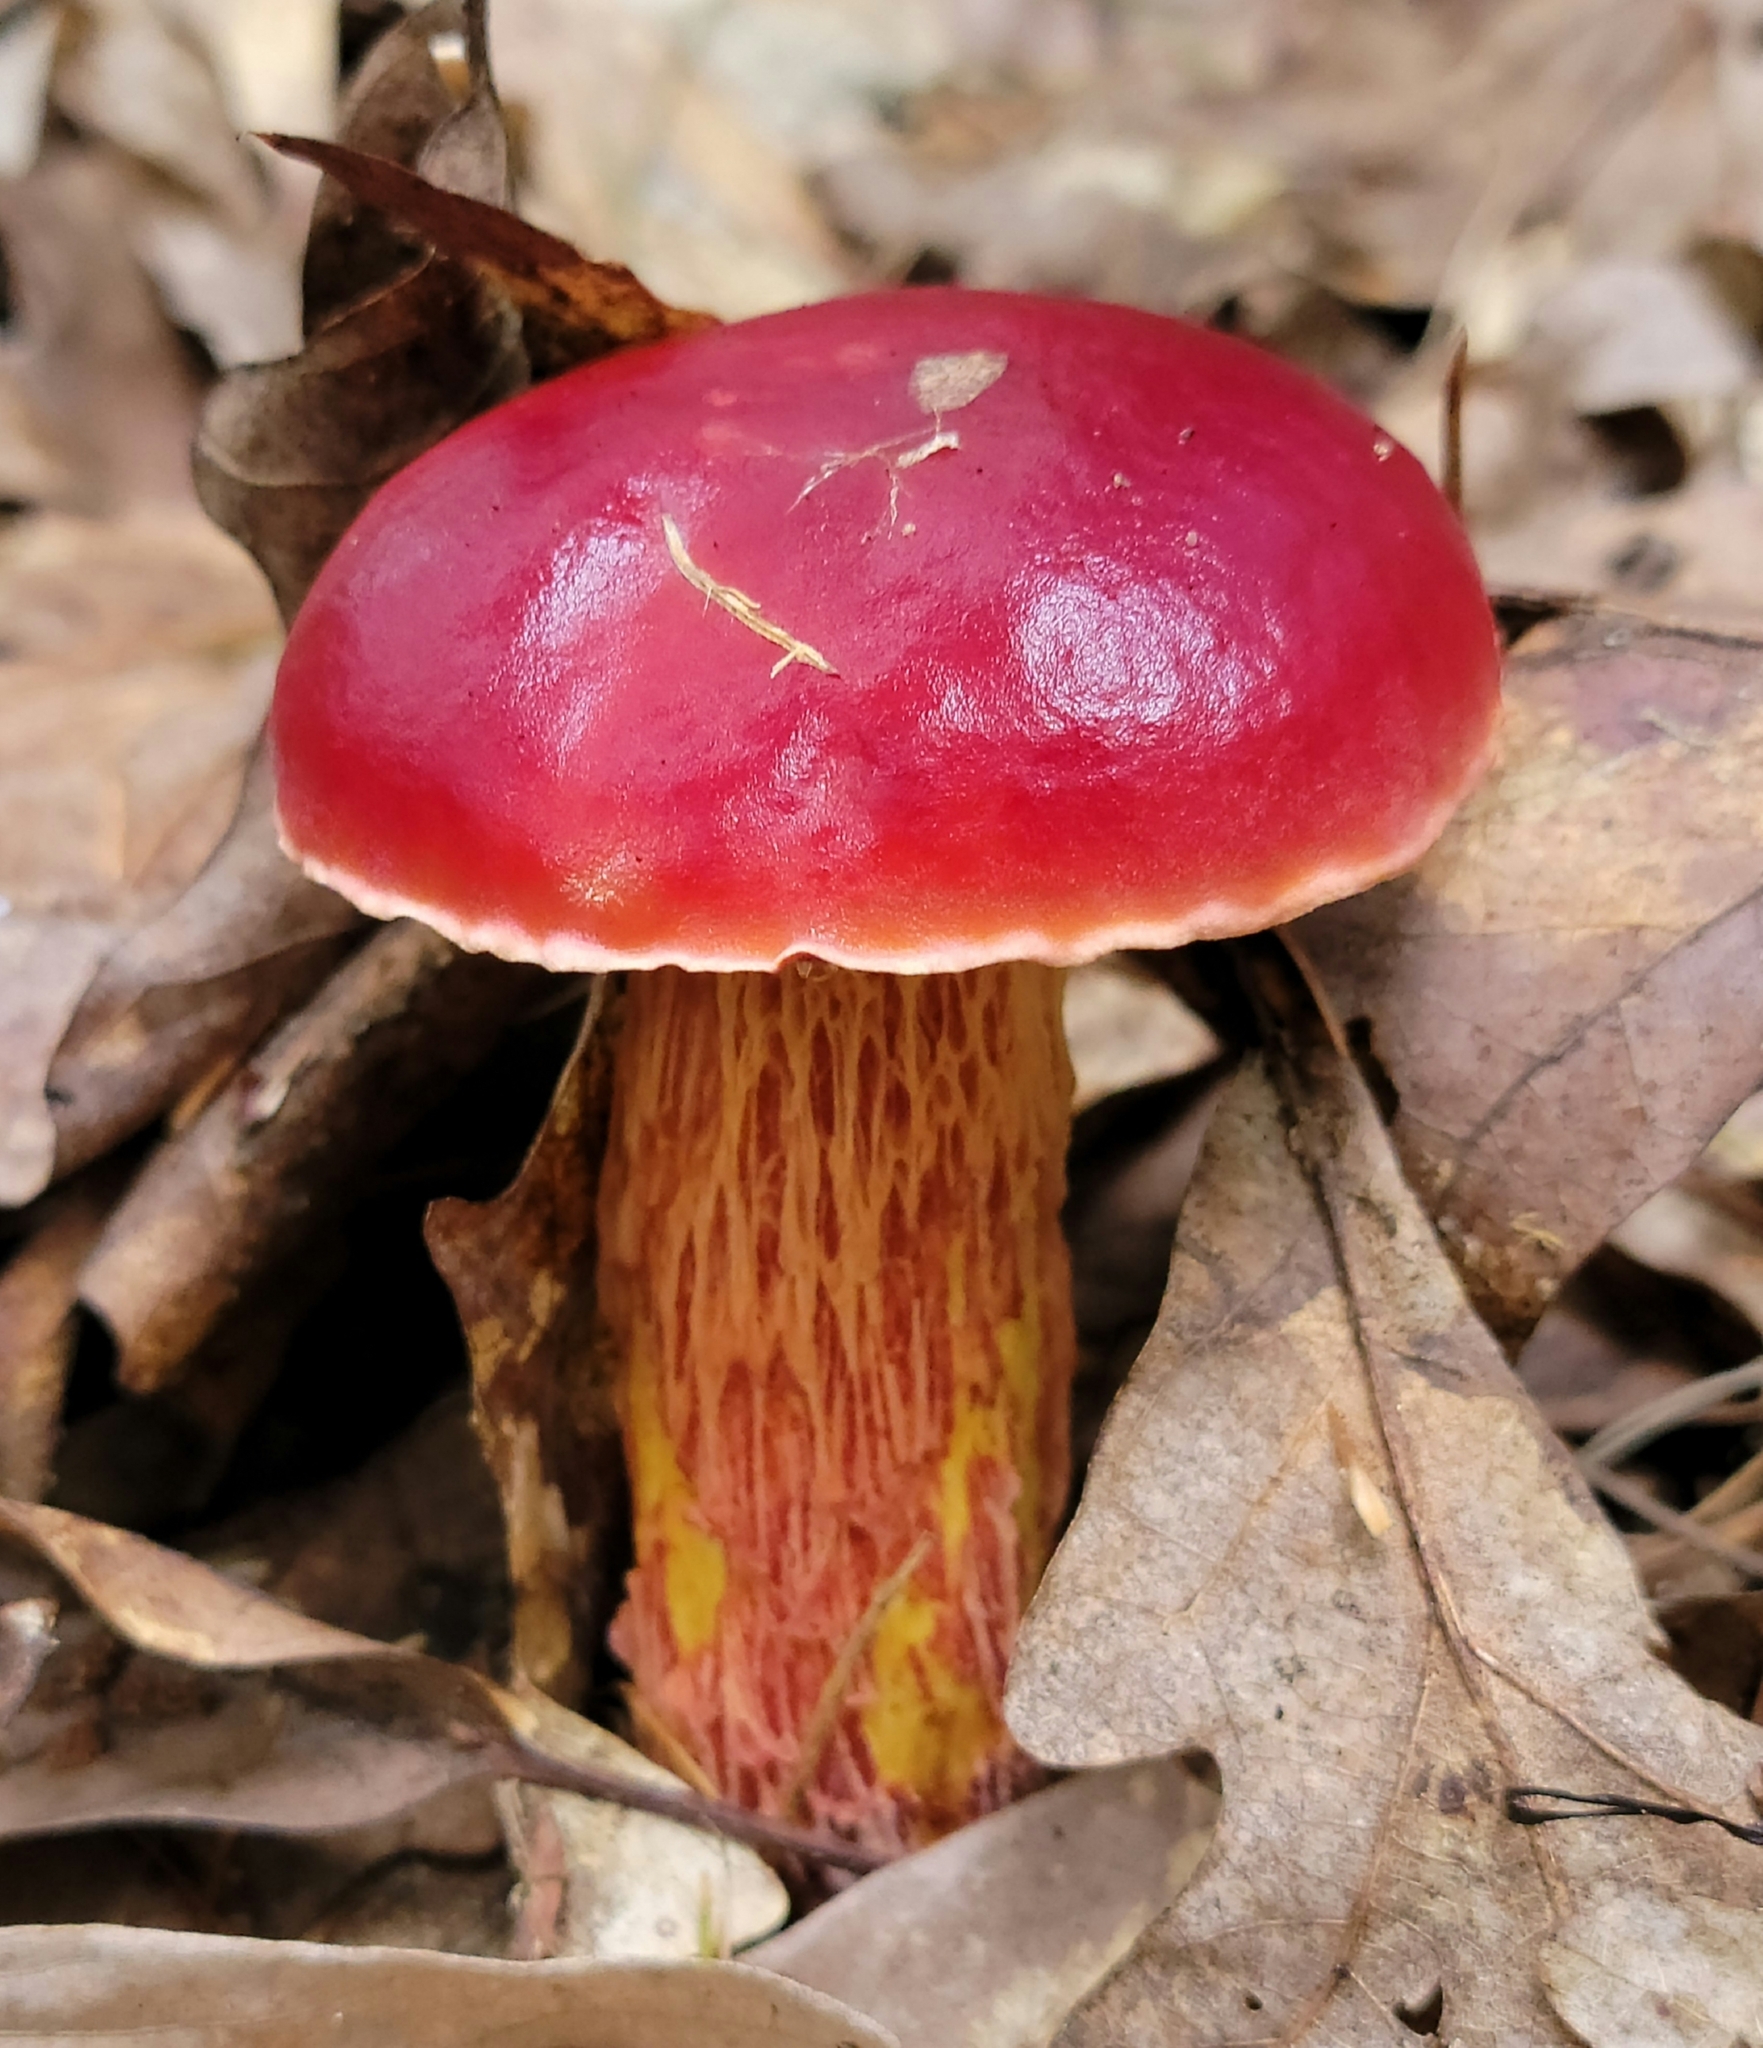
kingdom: Fungi
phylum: Basidiomycota
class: Agaricomycetes
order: Boletales
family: Boletaceae
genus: Butyriboletus
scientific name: Butyriboletus frostii
